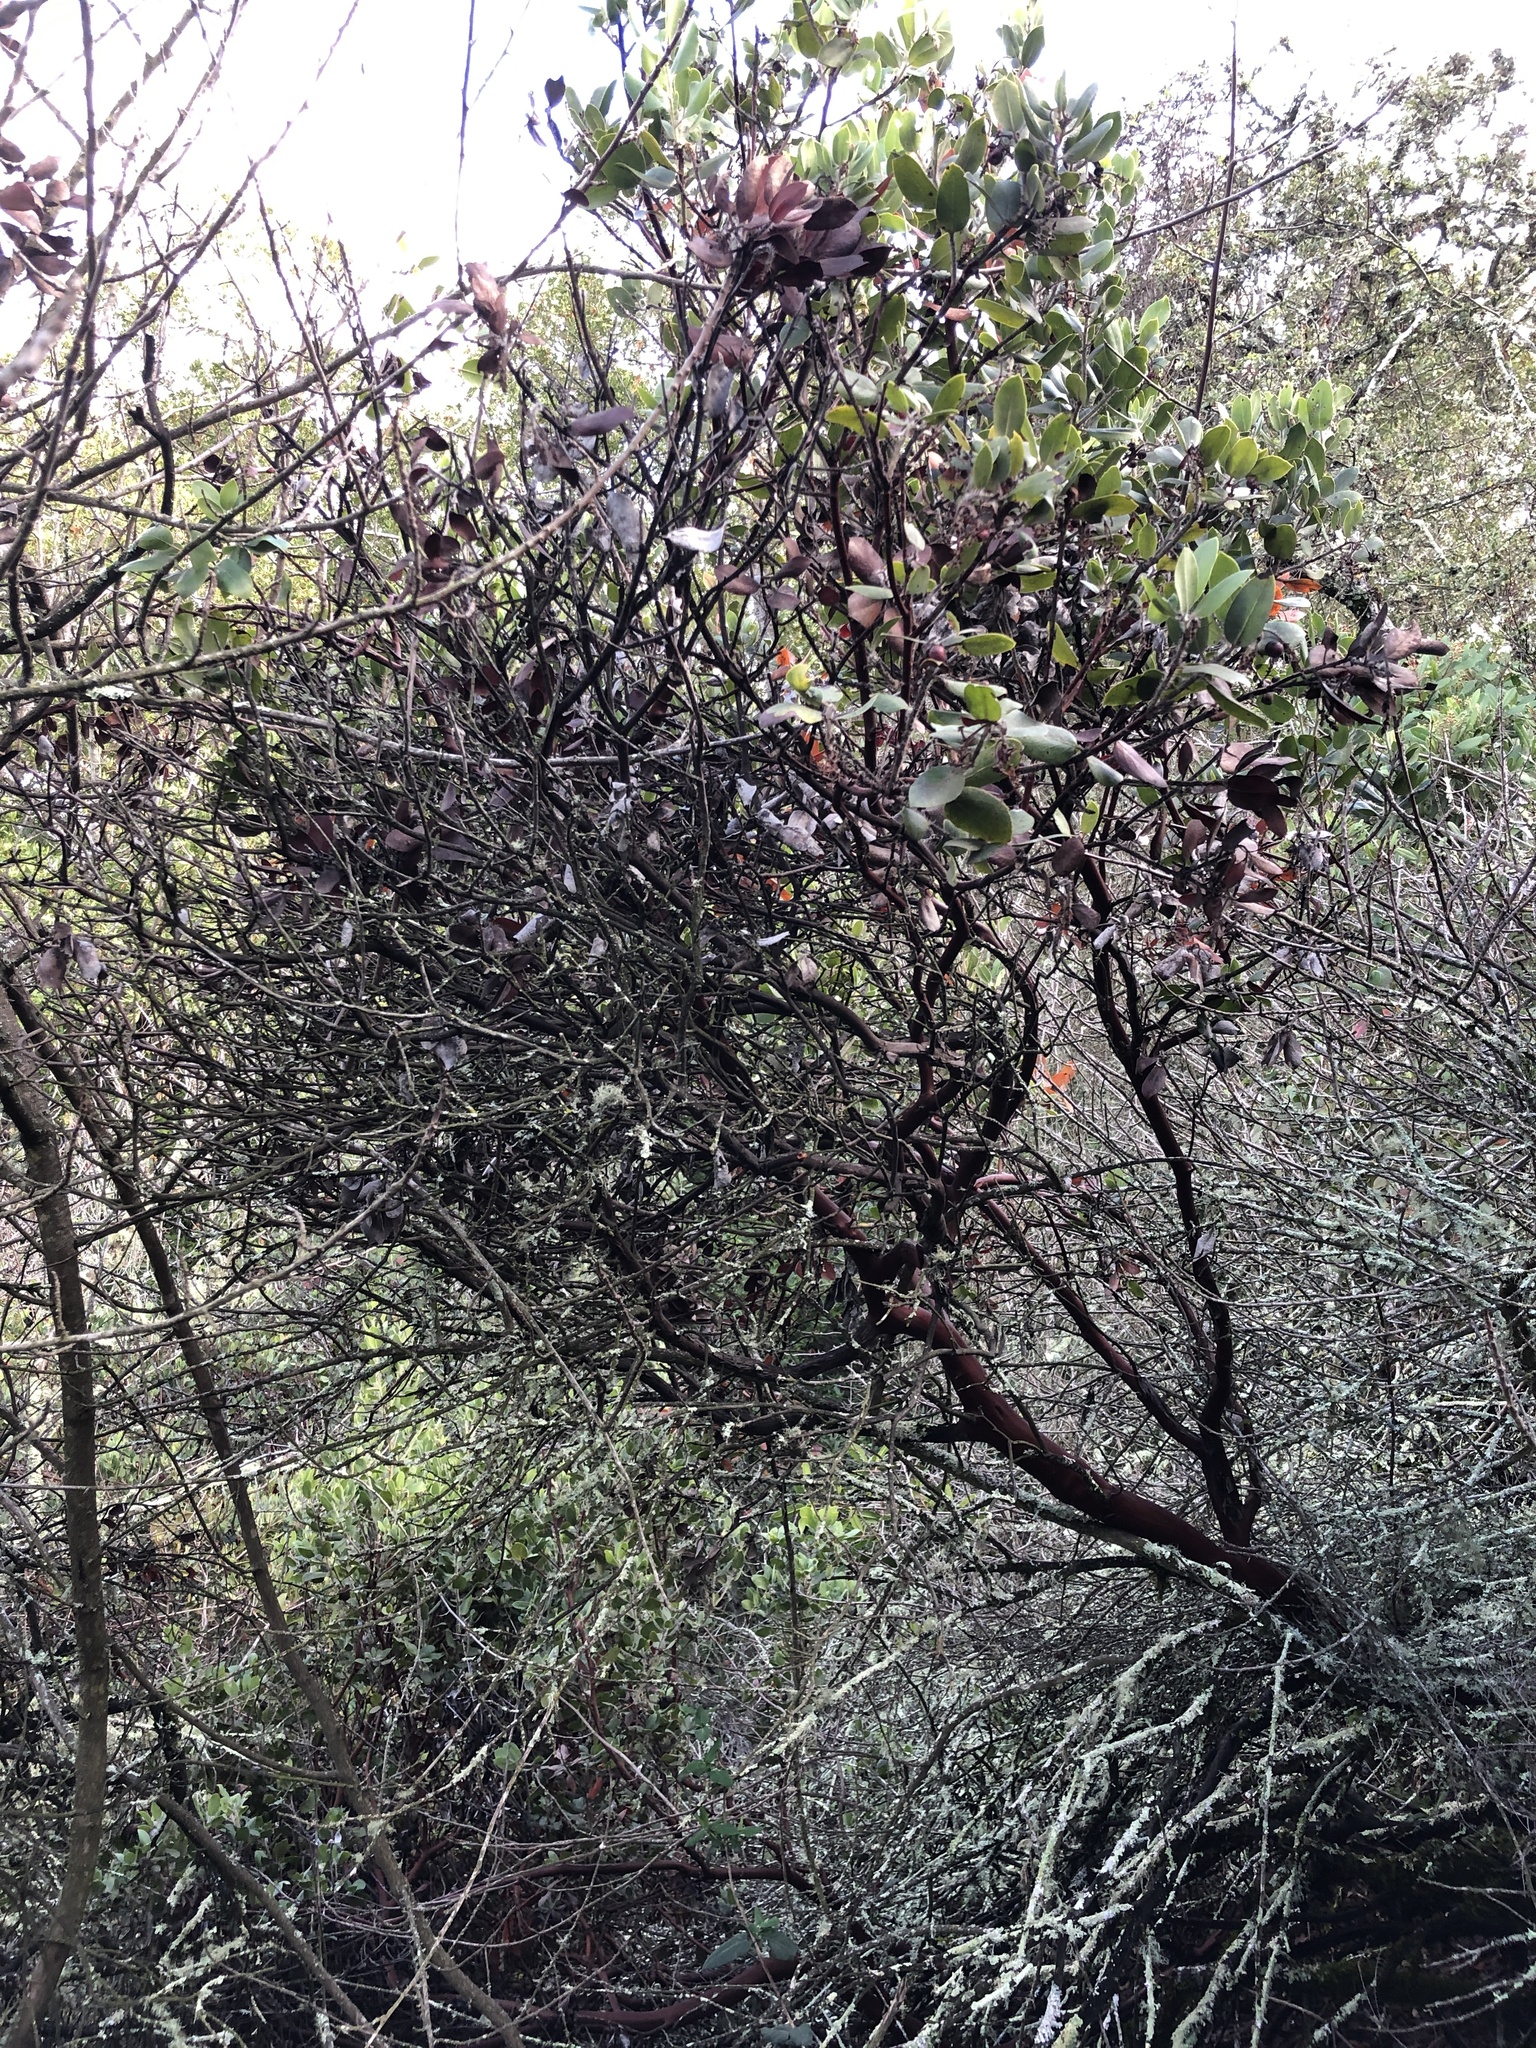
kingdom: Plantae
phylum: Tracheophyta
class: Magnoliopsida
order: Ericales
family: Ericaceae
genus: Arctostaphylos
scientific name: Arctostaphylos crustacea
